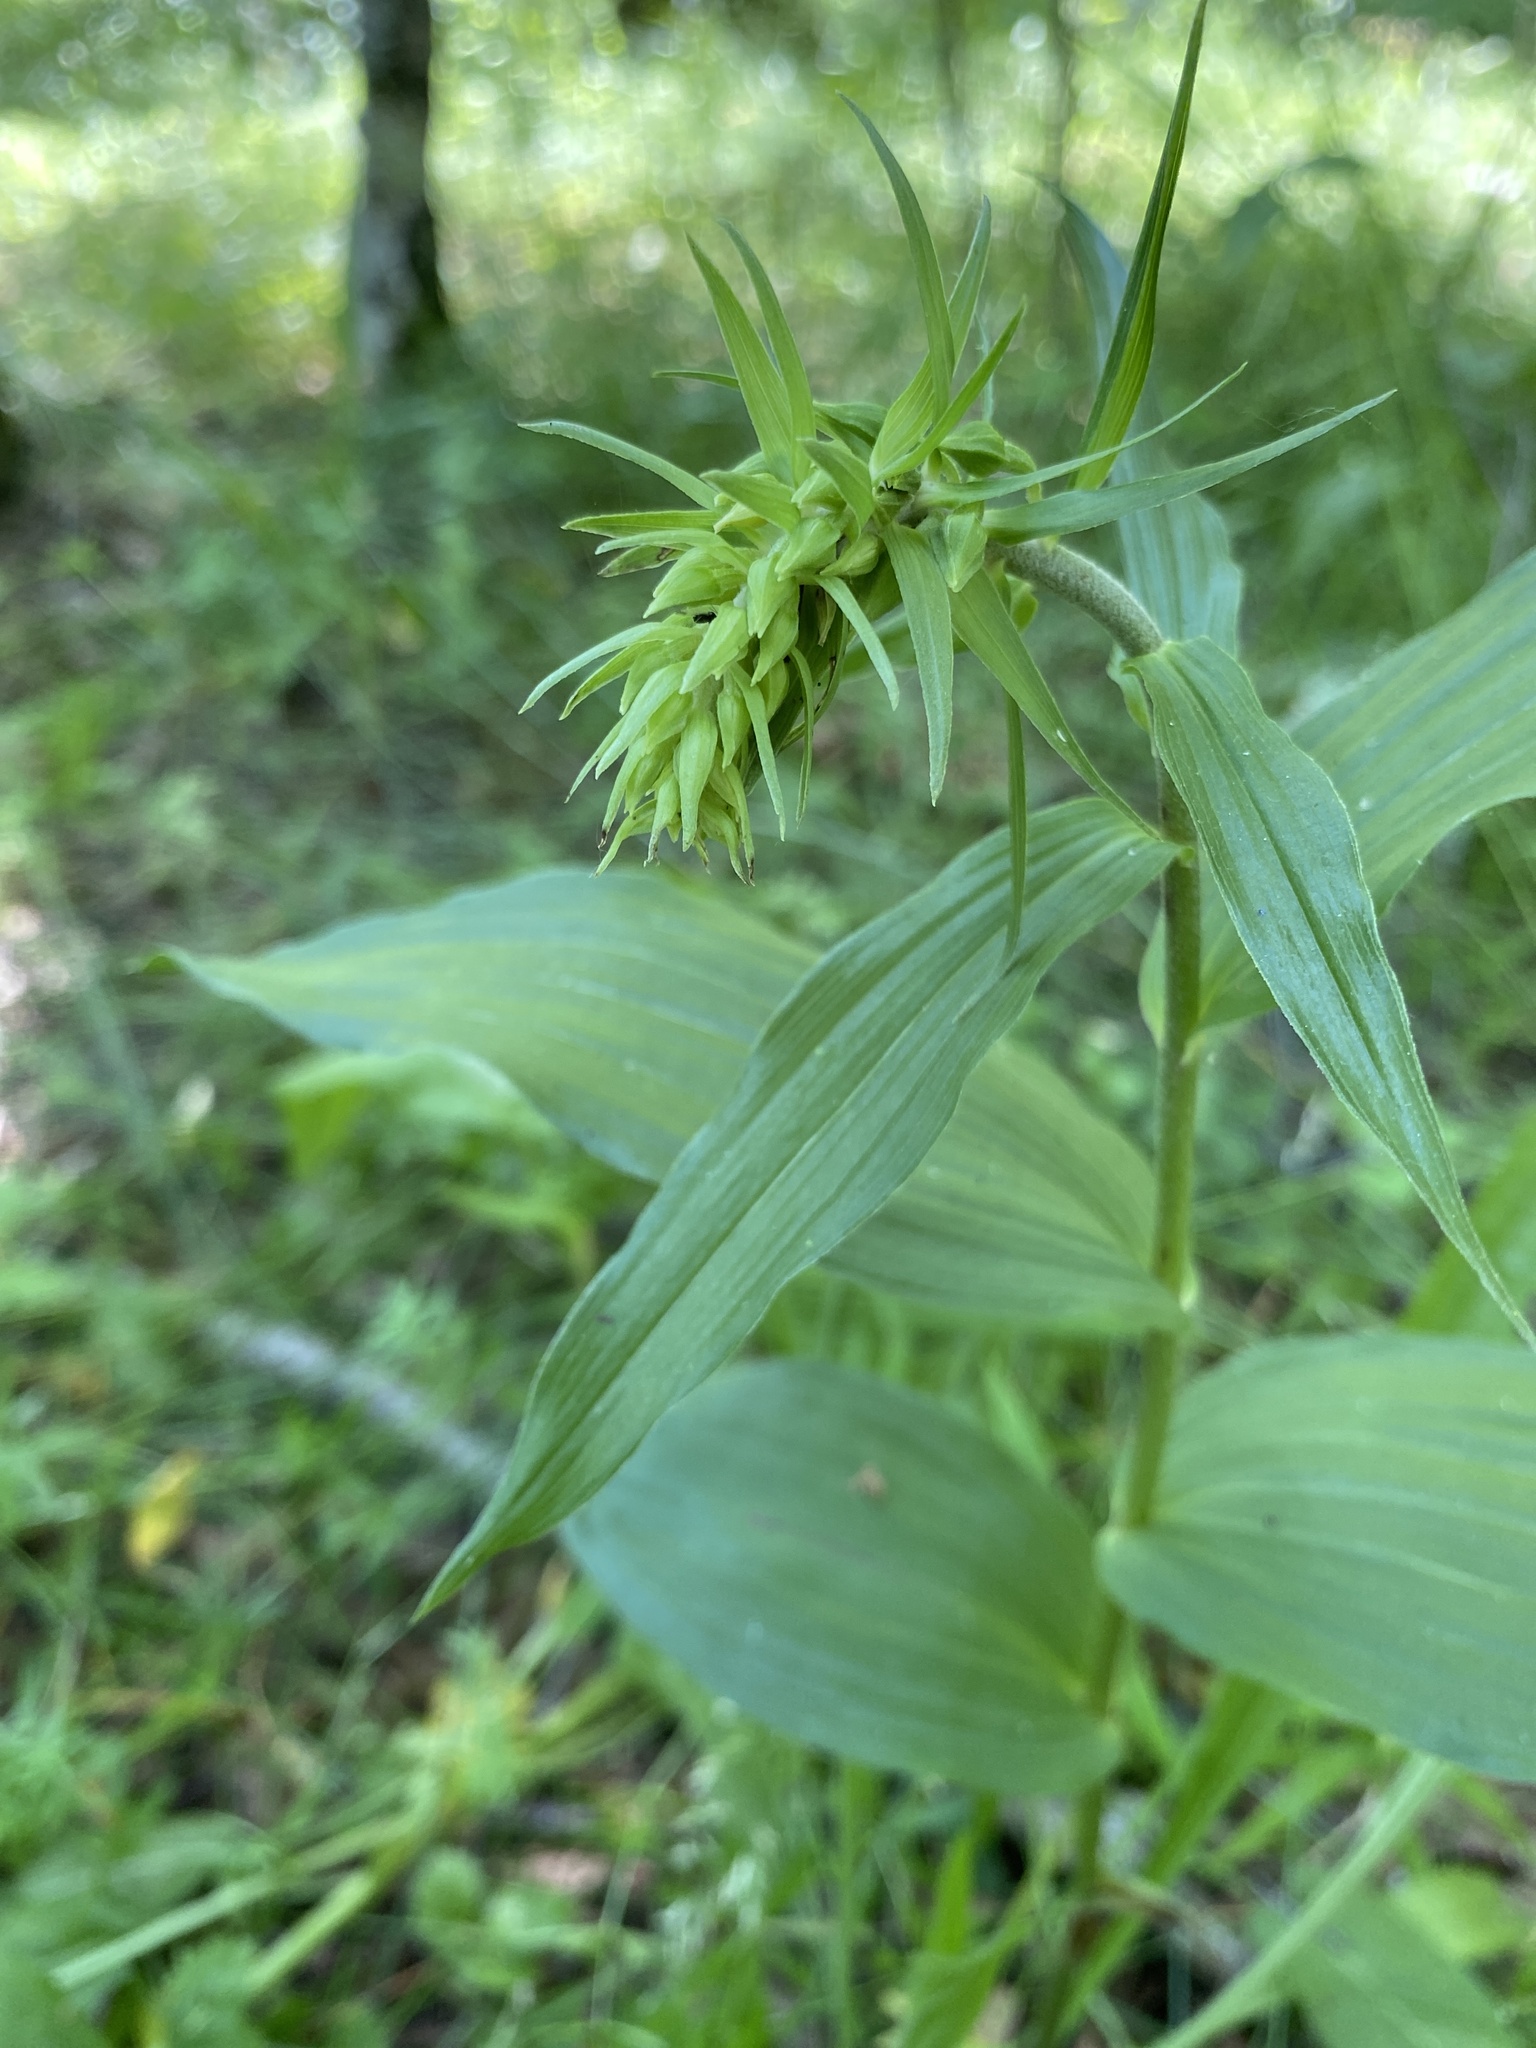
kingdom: Plantae
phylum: Tracheophyta
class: Liliopsida
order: Asparagales
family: Orchidaceae
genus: Epipactis
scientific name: Epipactis helleborine
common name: Broad-leaved helleborine
